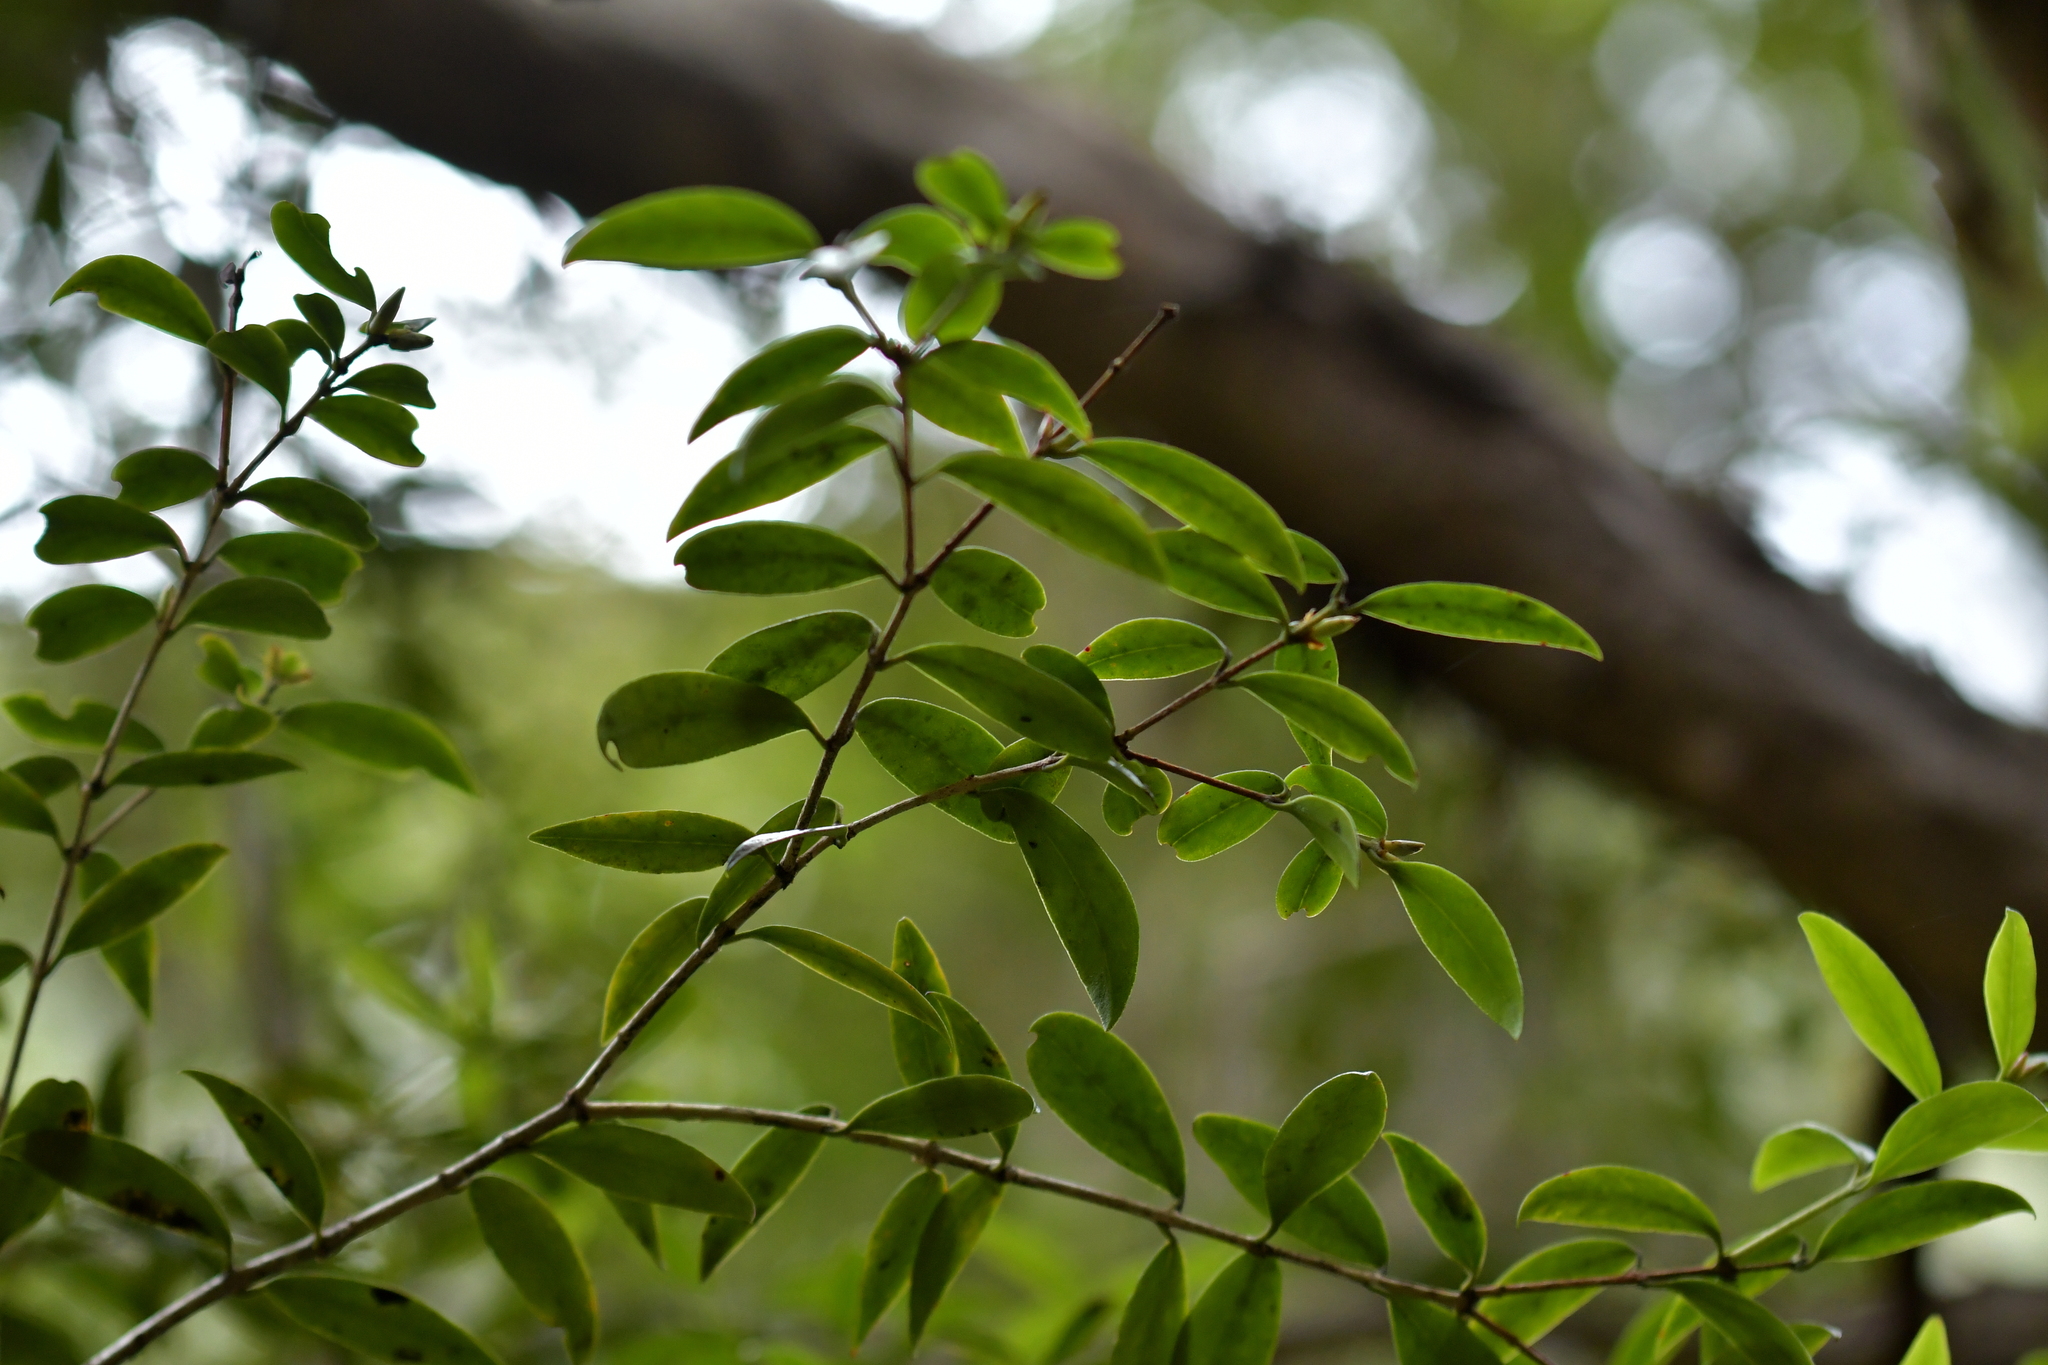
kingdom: Plantae
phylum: Tracheophyta
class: Magnoliopsida
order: Myrtales
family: Myrtaceae
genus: Metrosideros
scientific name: Metrosideros umbellata
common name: Southern rata
